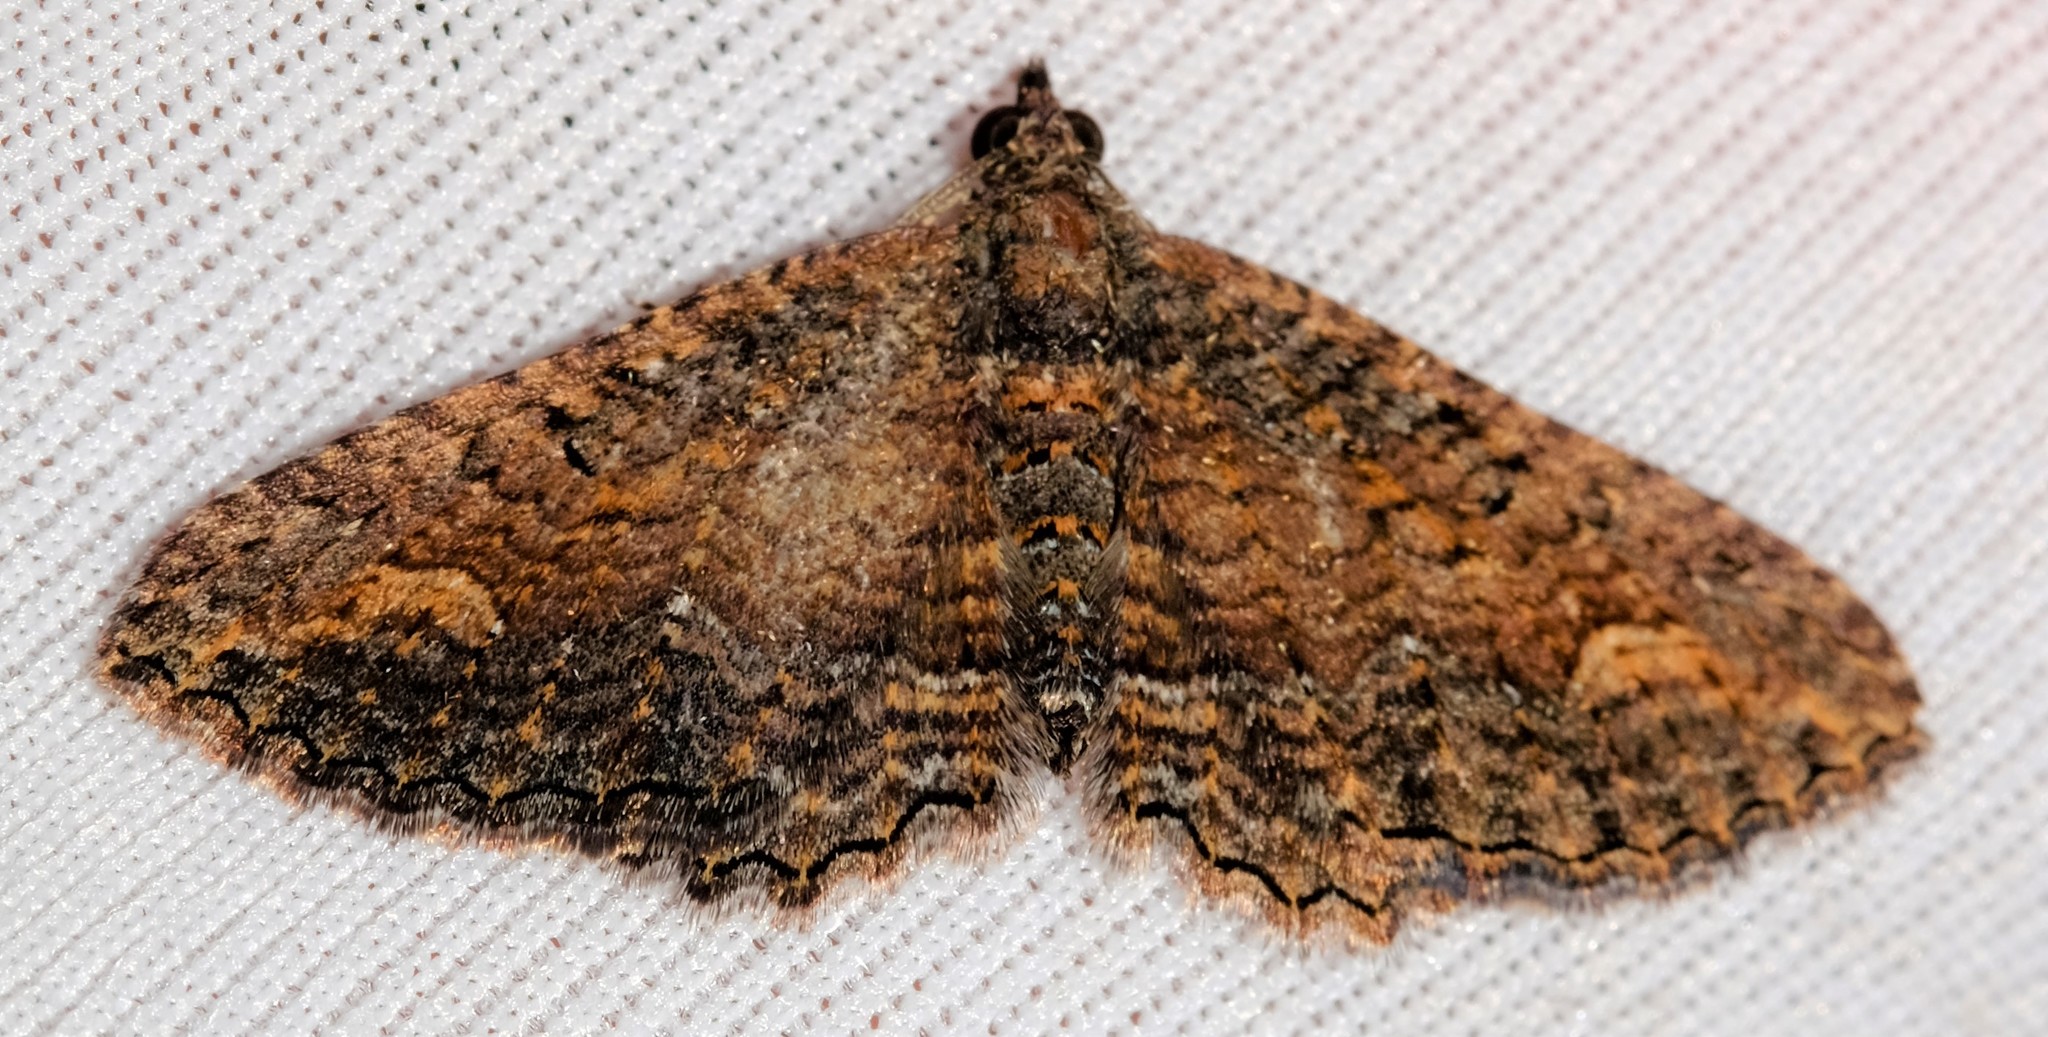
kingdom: Animalia
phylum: Arthropoda
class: Insecta
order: Lepidoptera
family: Geometridae
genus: Eupithecia
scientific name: Eupithecia Eucymatoge scotodes
